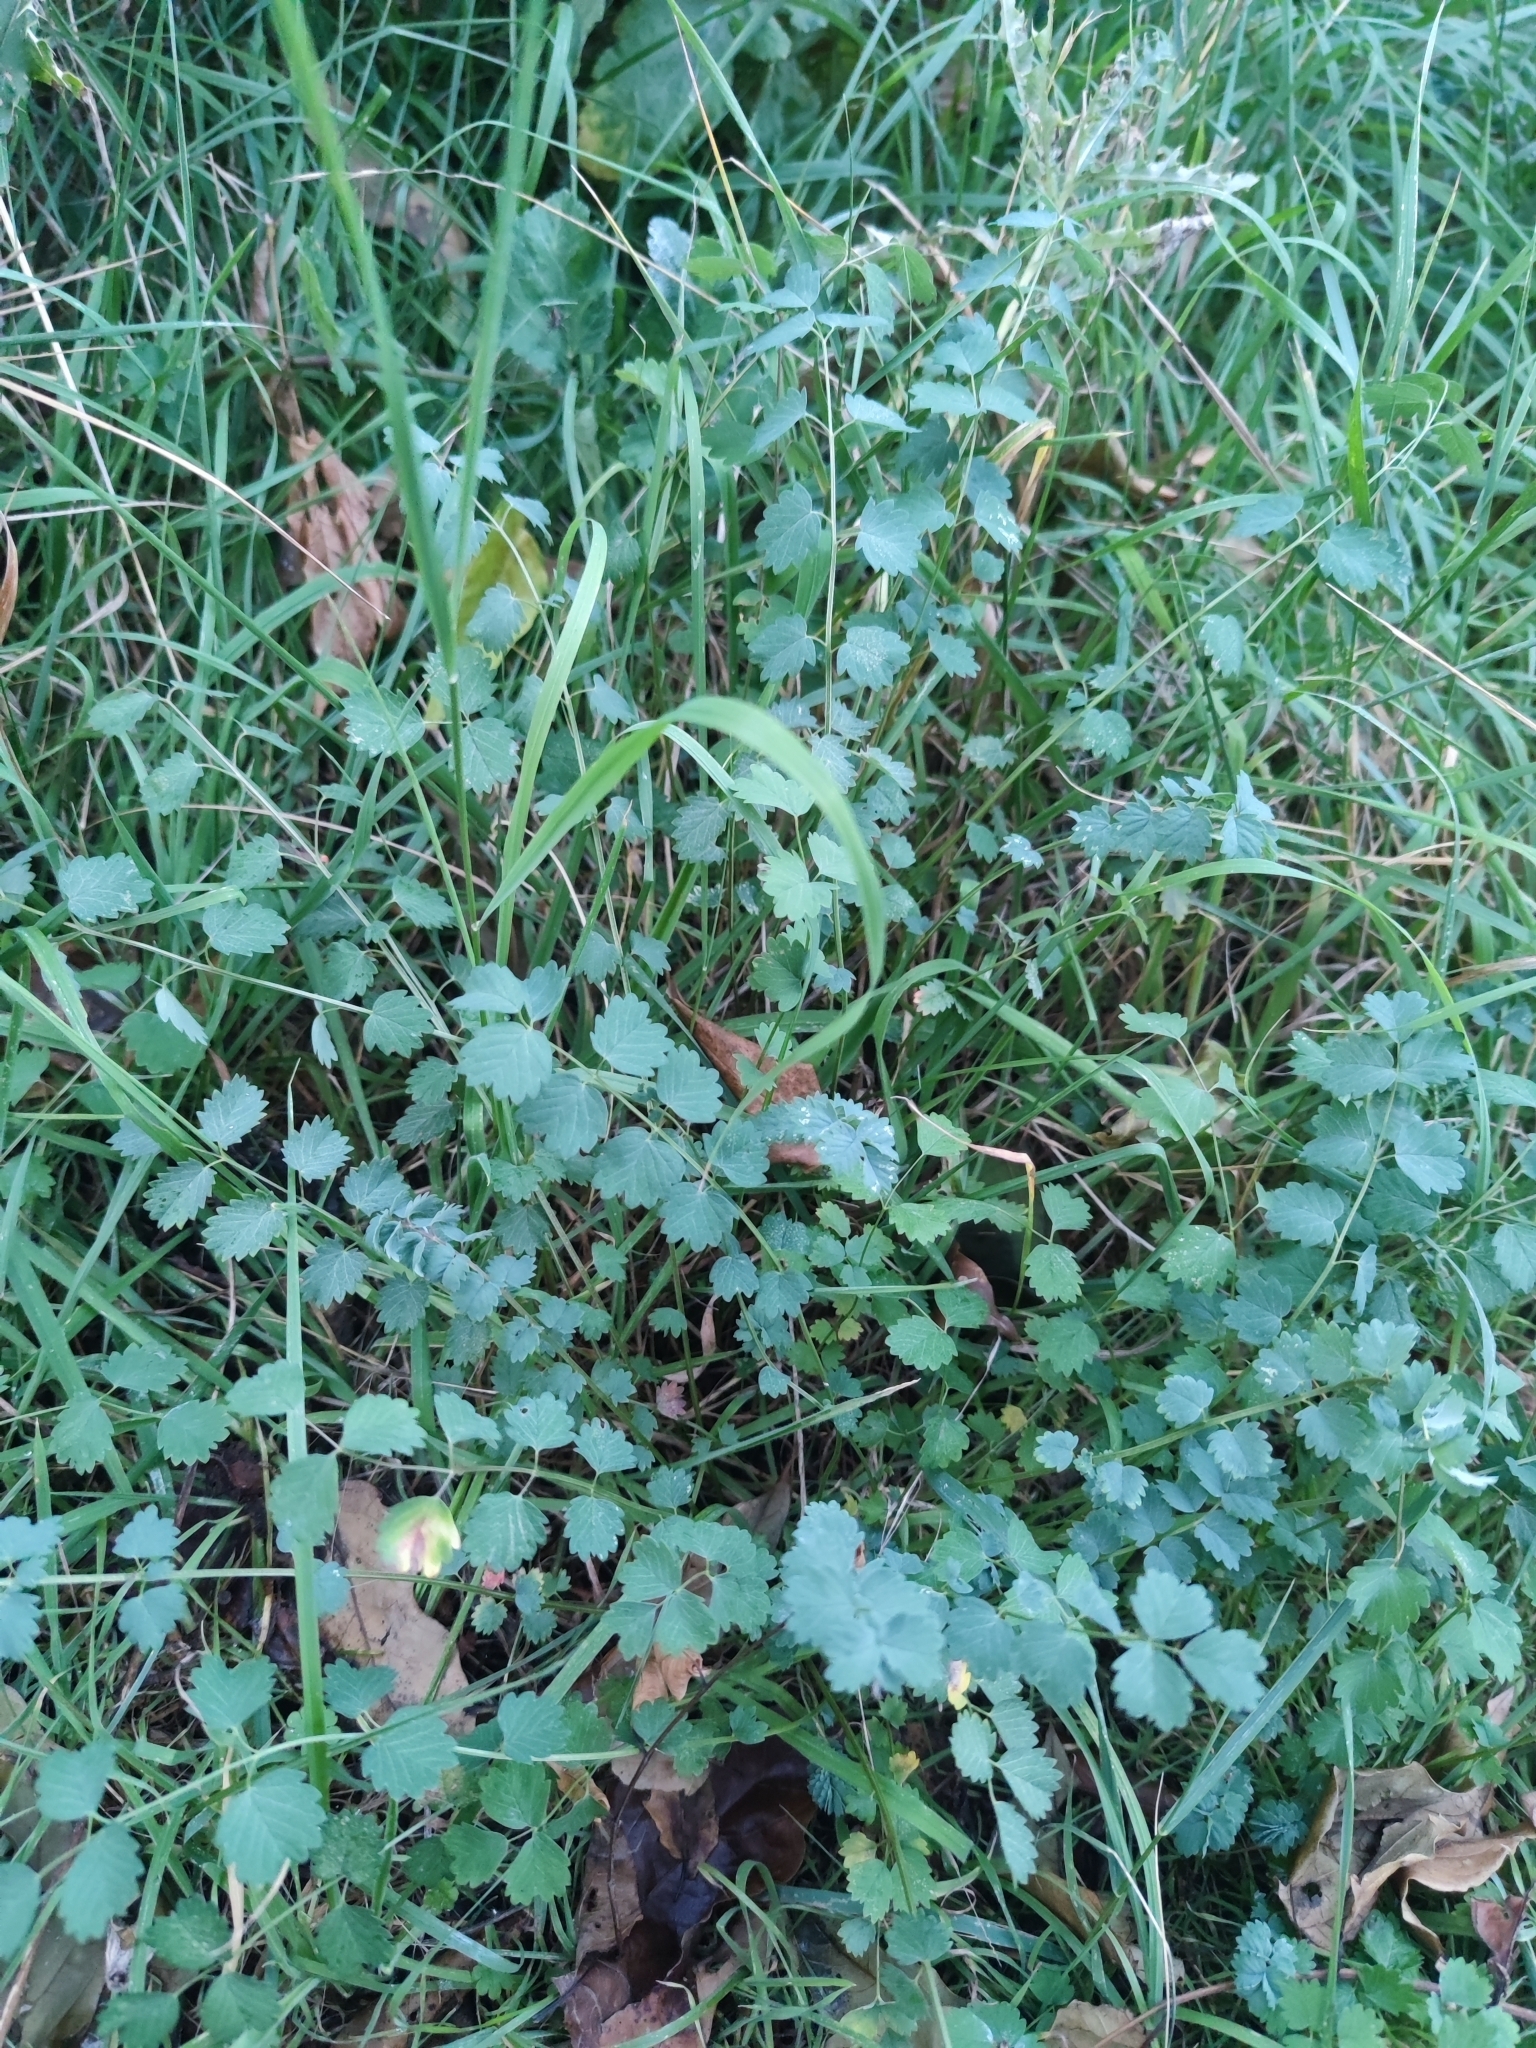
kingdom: Plantae
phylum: Tracheophyta
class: Magnoliopsida
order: Rosales
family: Rosaceae
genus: Poterium
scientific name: Poterium sanguisorba
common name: Salad burnet
